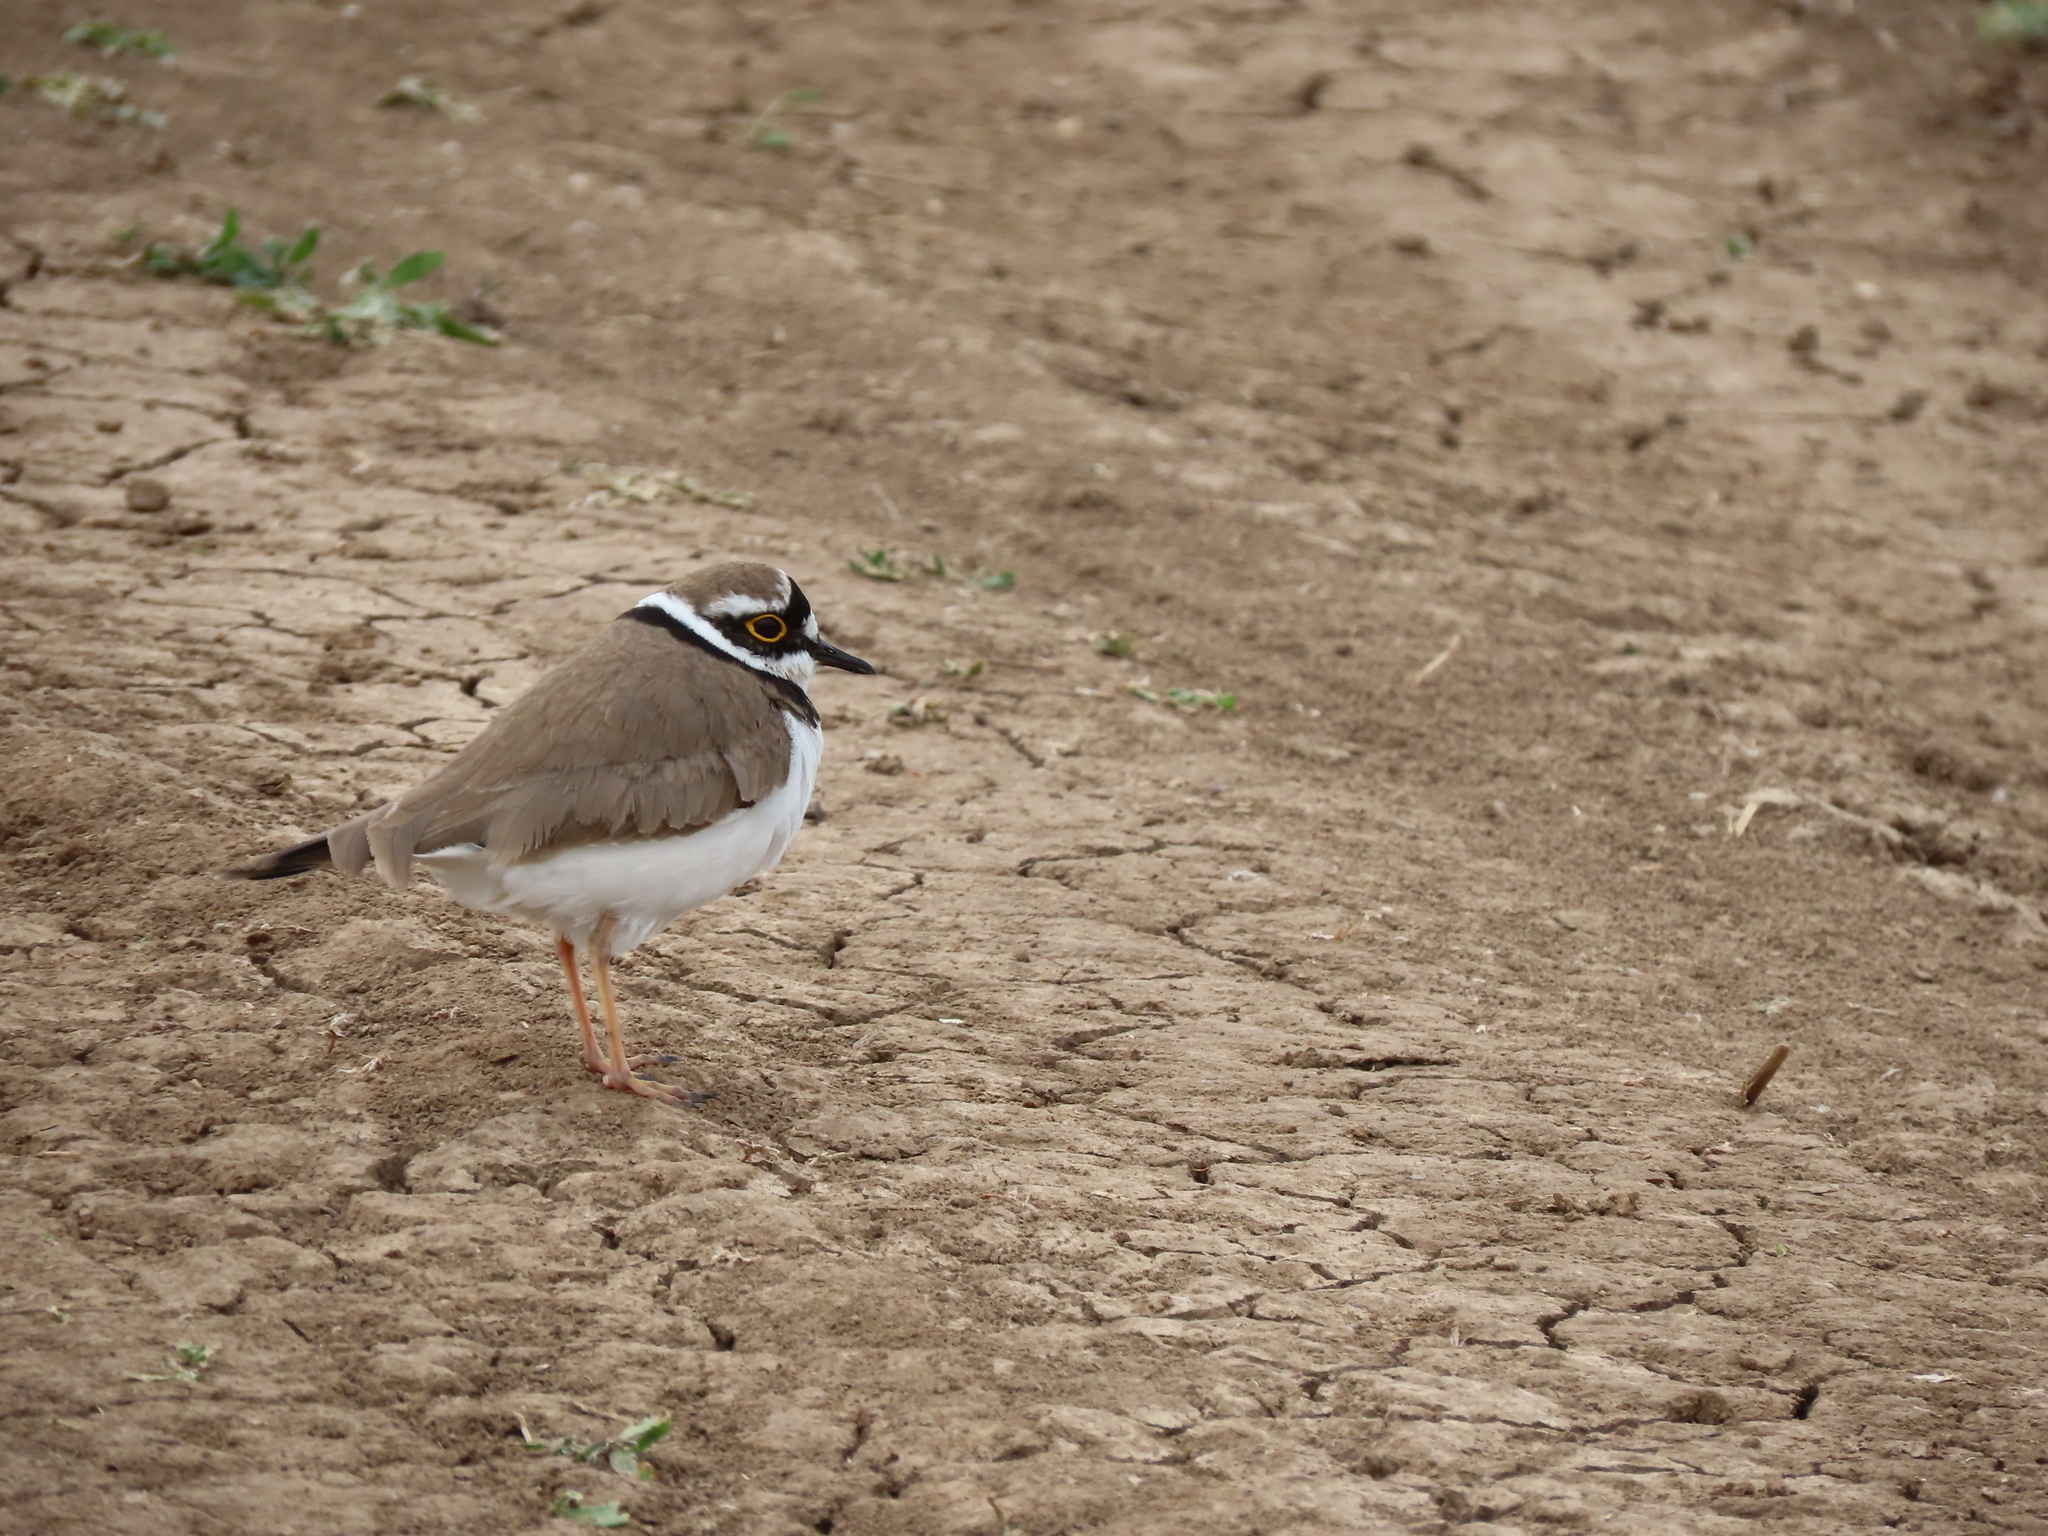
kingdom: Animalia
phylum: Chordata
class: Aves
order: Charadriiformes
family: Charadriidae
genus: Charadrius
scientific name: Charadrius dubius
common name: Little ringed plover
